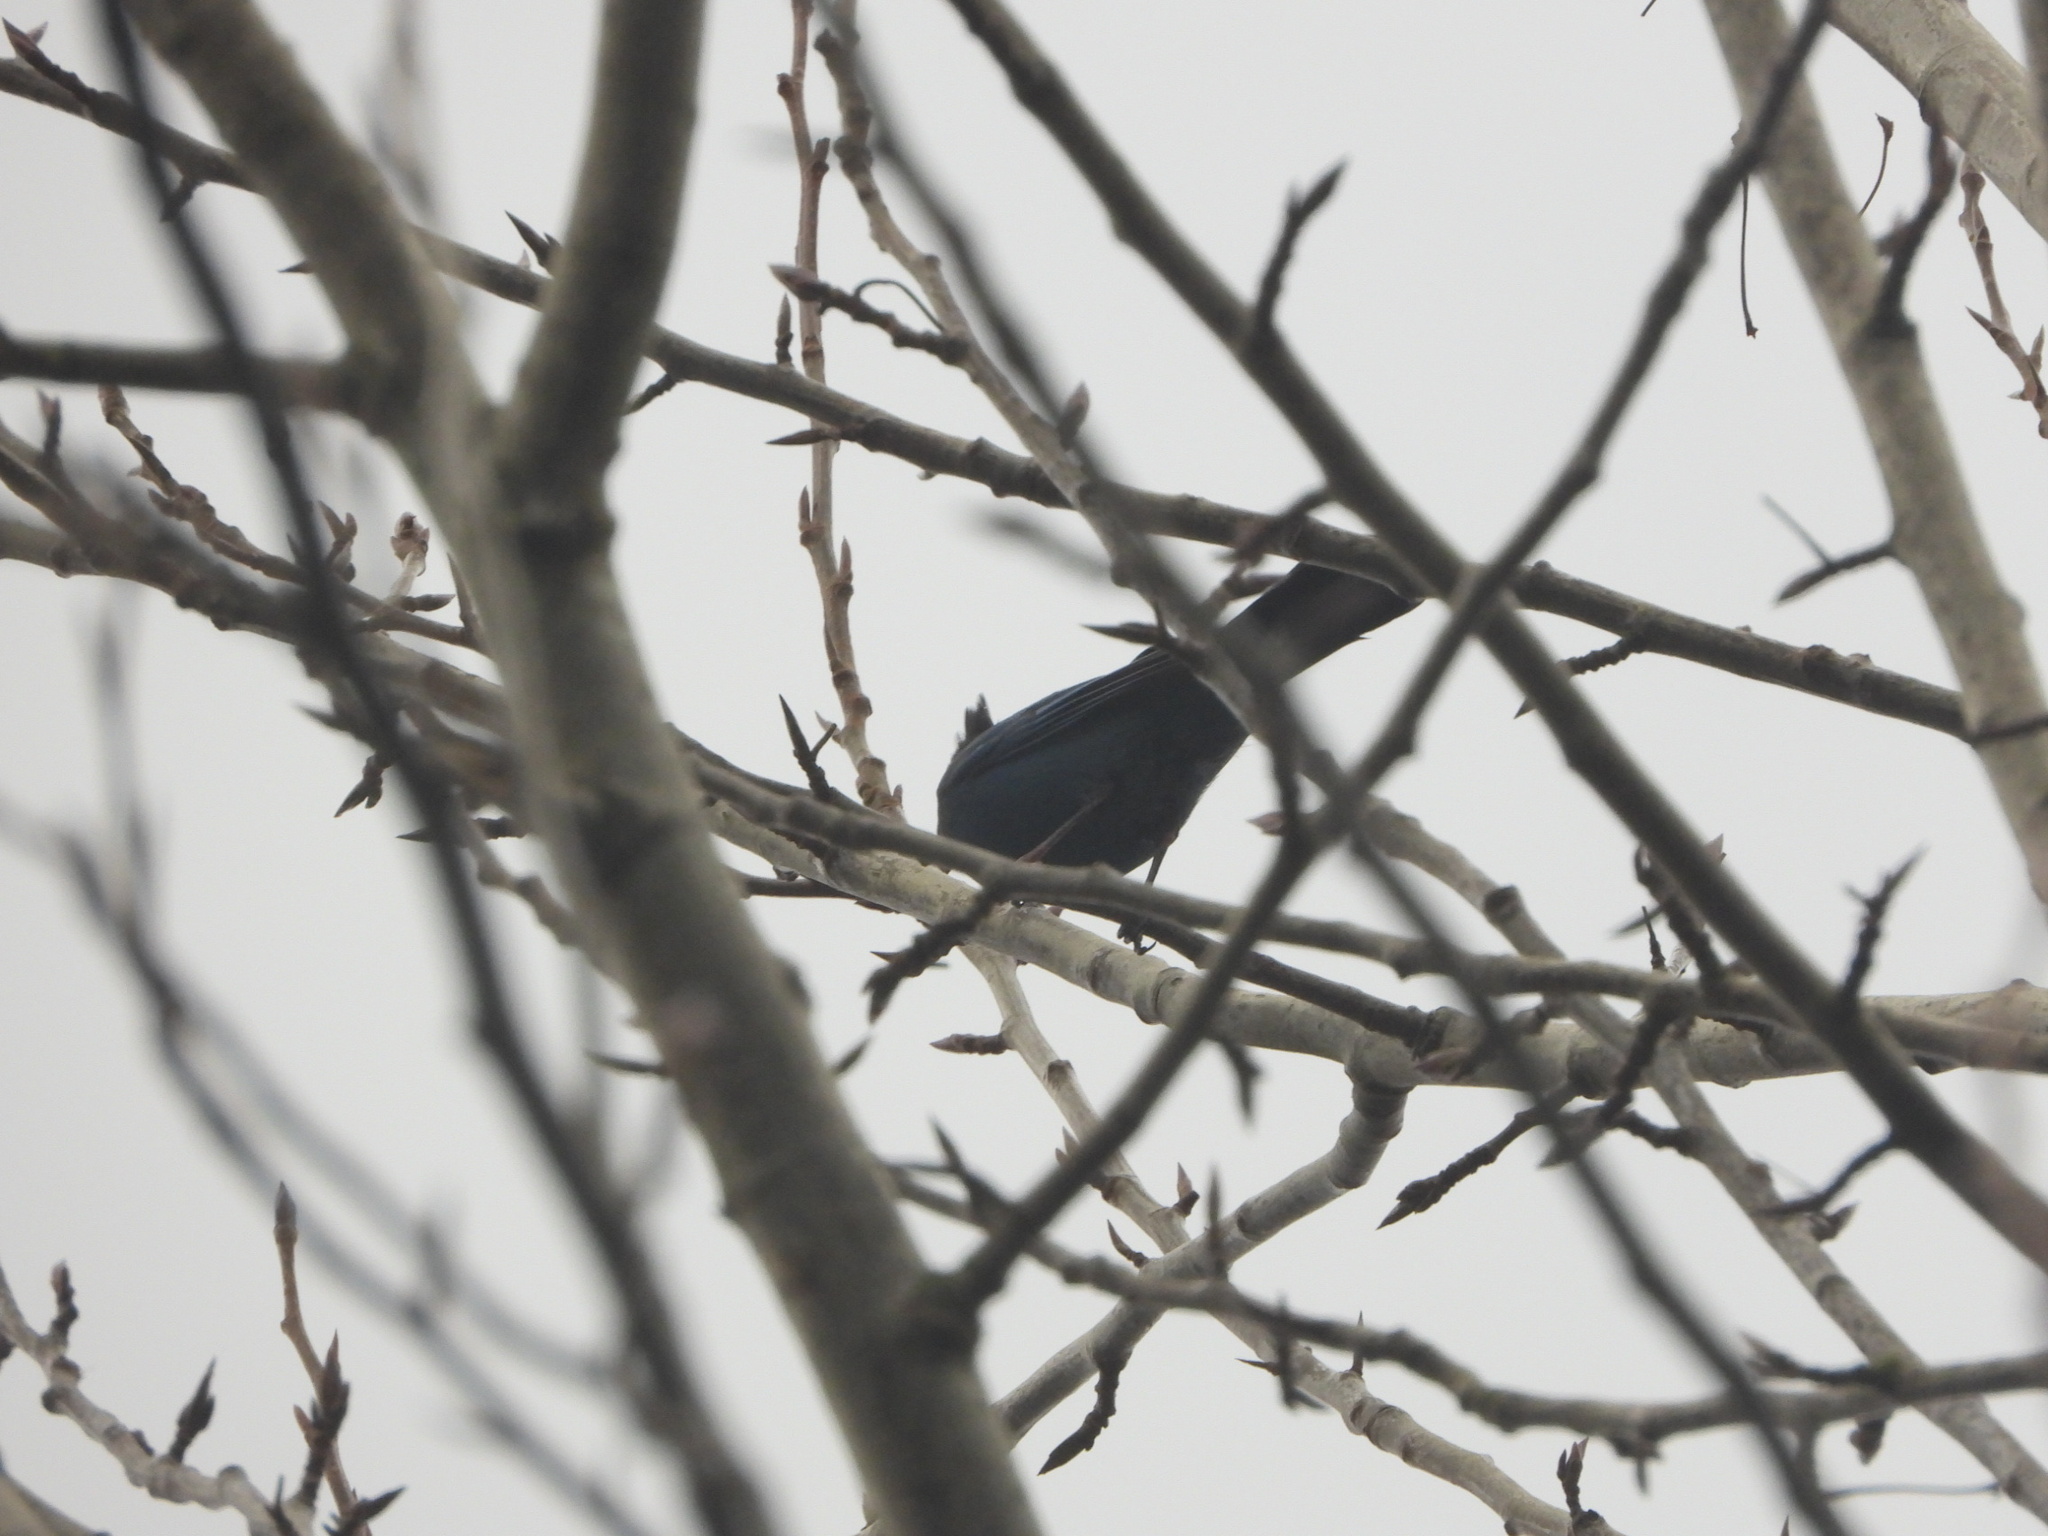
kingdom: Animalia
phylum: Chordata
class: Aves
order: Passeriformes
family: Corvidae
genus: Cyanocitta
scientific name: Cyanocitta stelleri
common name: Steller's jay
